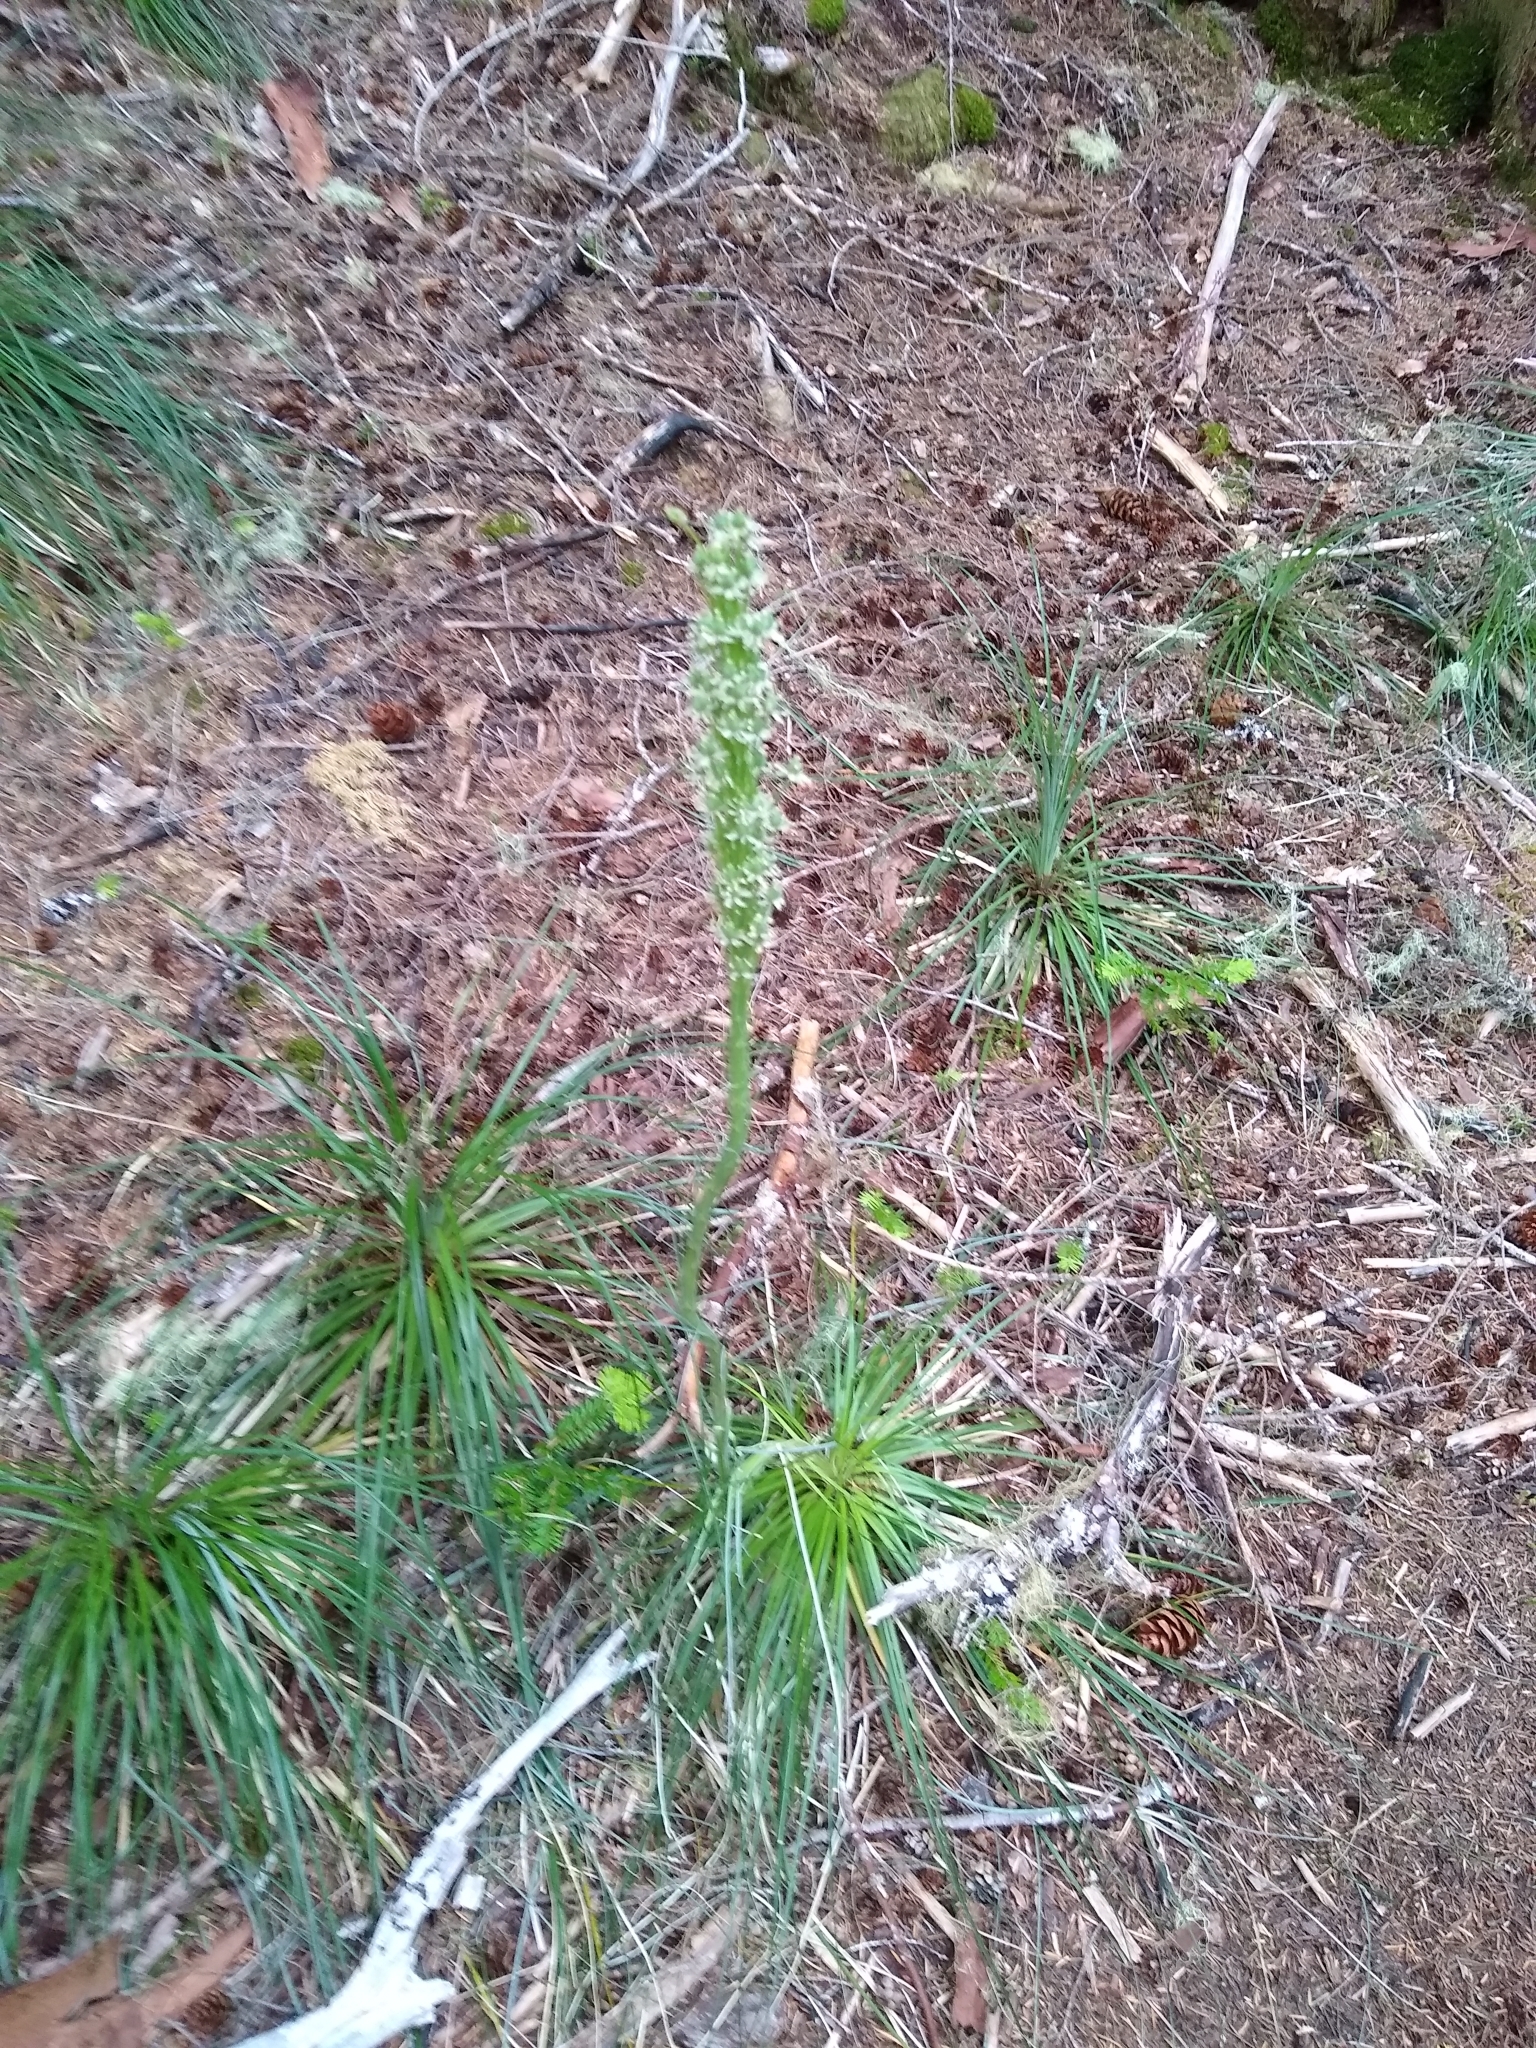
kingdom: Plantae
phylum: Tracheophyta
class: Liliopsida
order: Liliales
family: Melanthiaceae
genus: Xerophyllum
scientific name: Xerophyllum tenax
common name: Bear-grass
